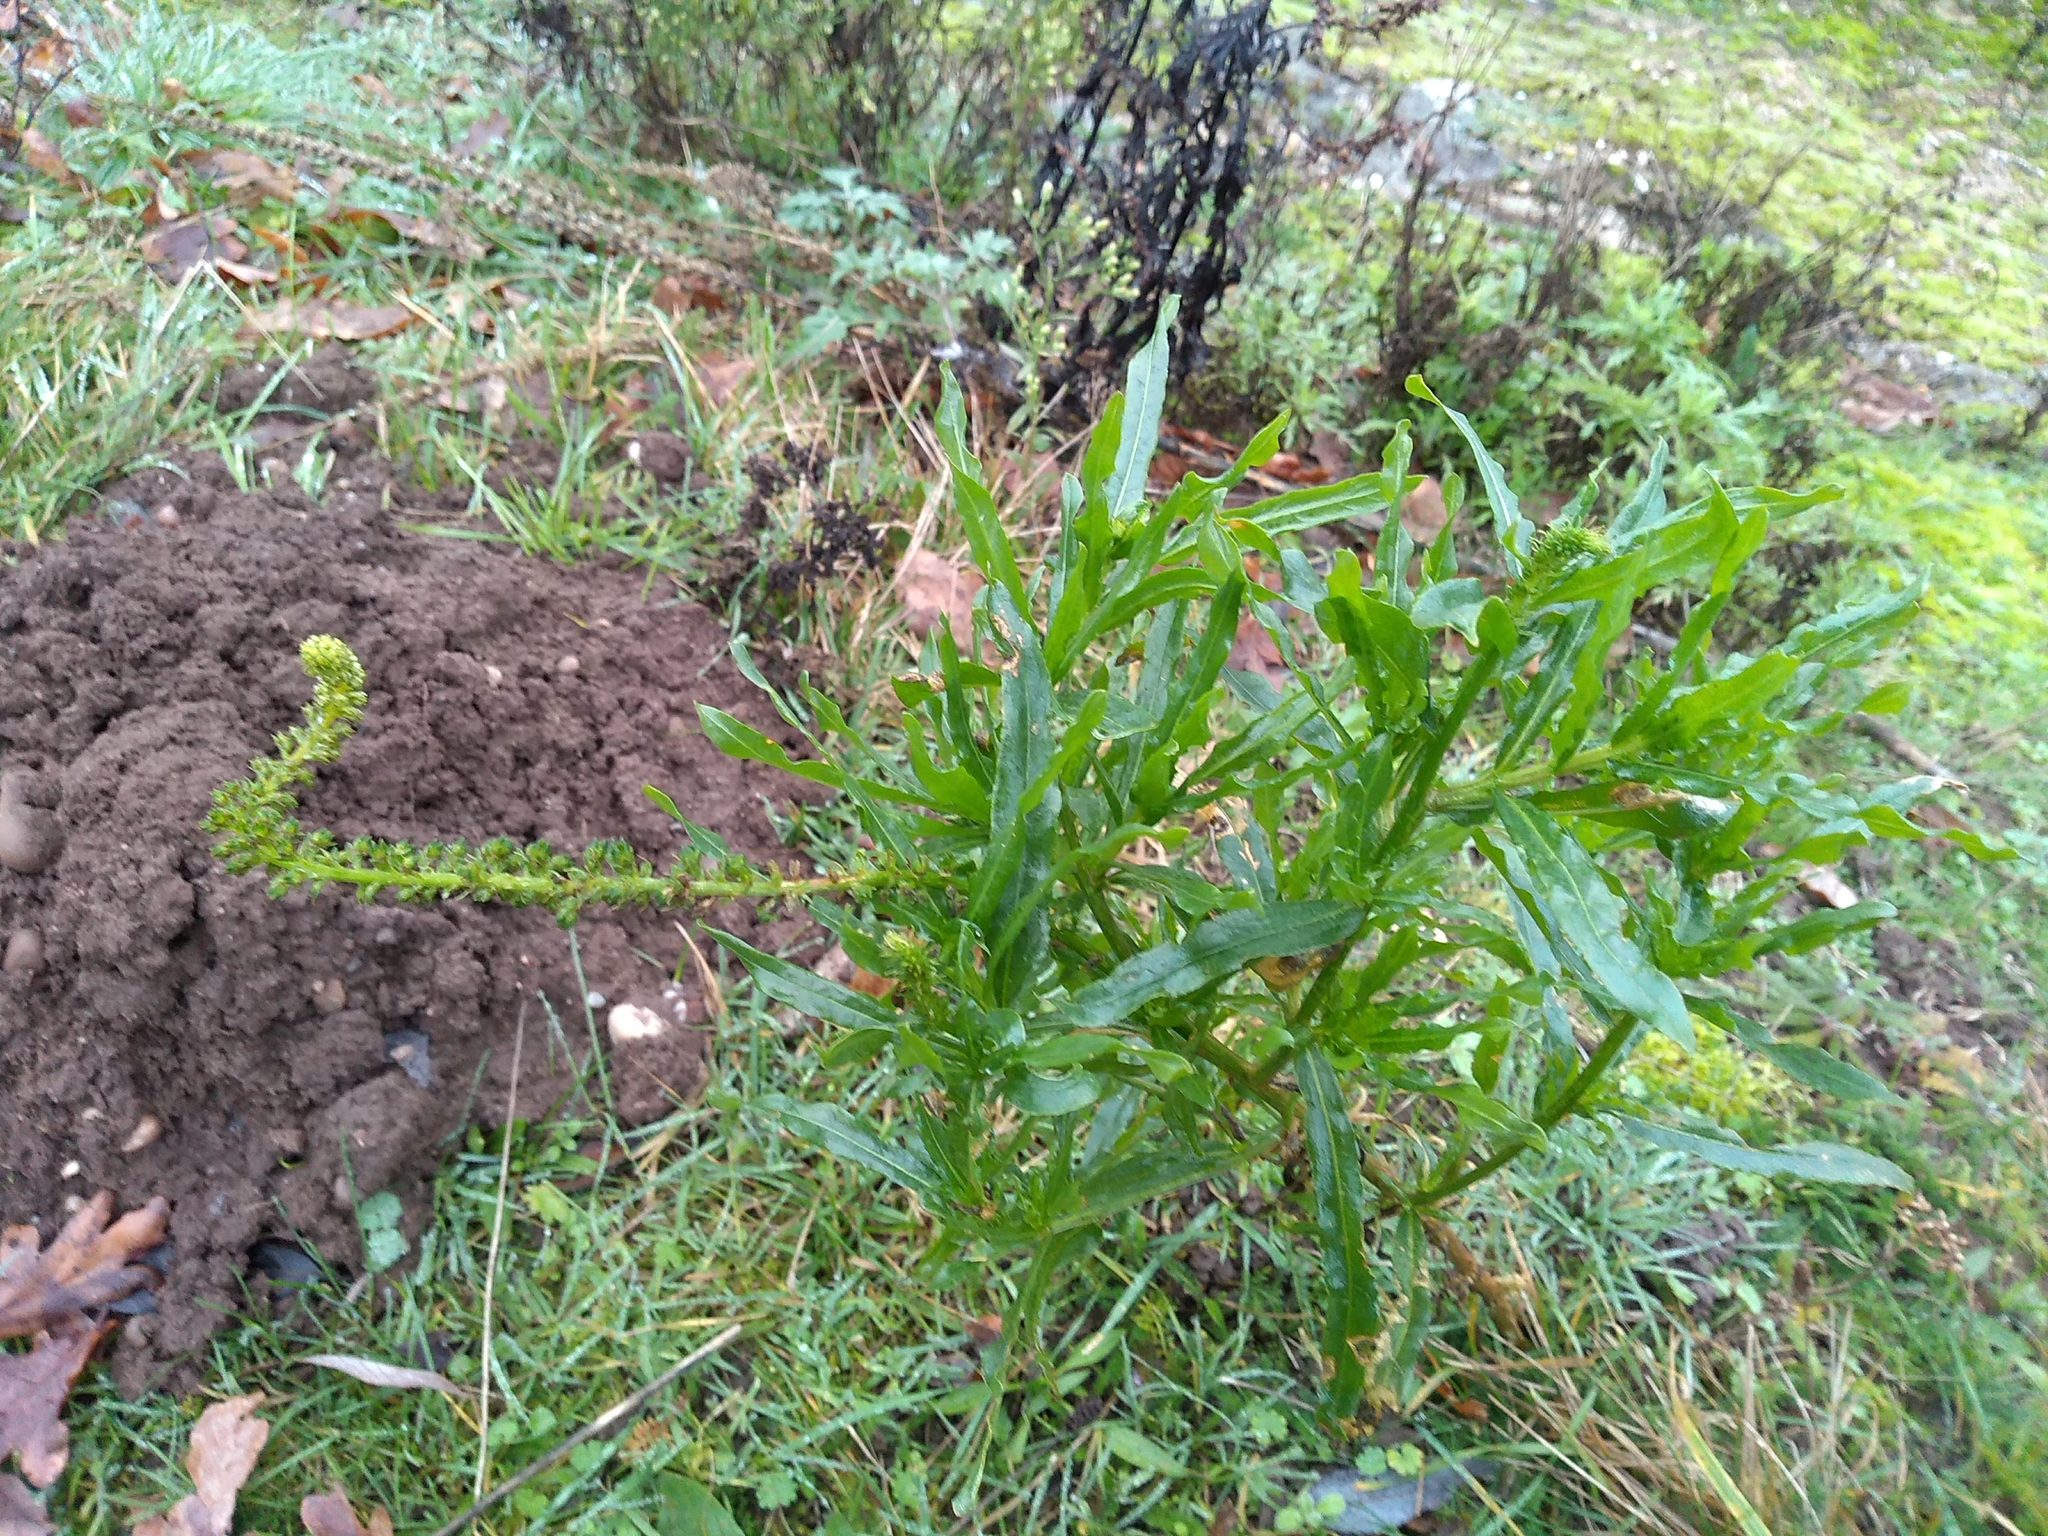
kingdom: Plantae
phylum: Tracheophyta
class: Magnoliopsida
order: Brassicales
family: Resedaceae
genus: Reseda
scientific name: Reseda luteola
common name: Weld
